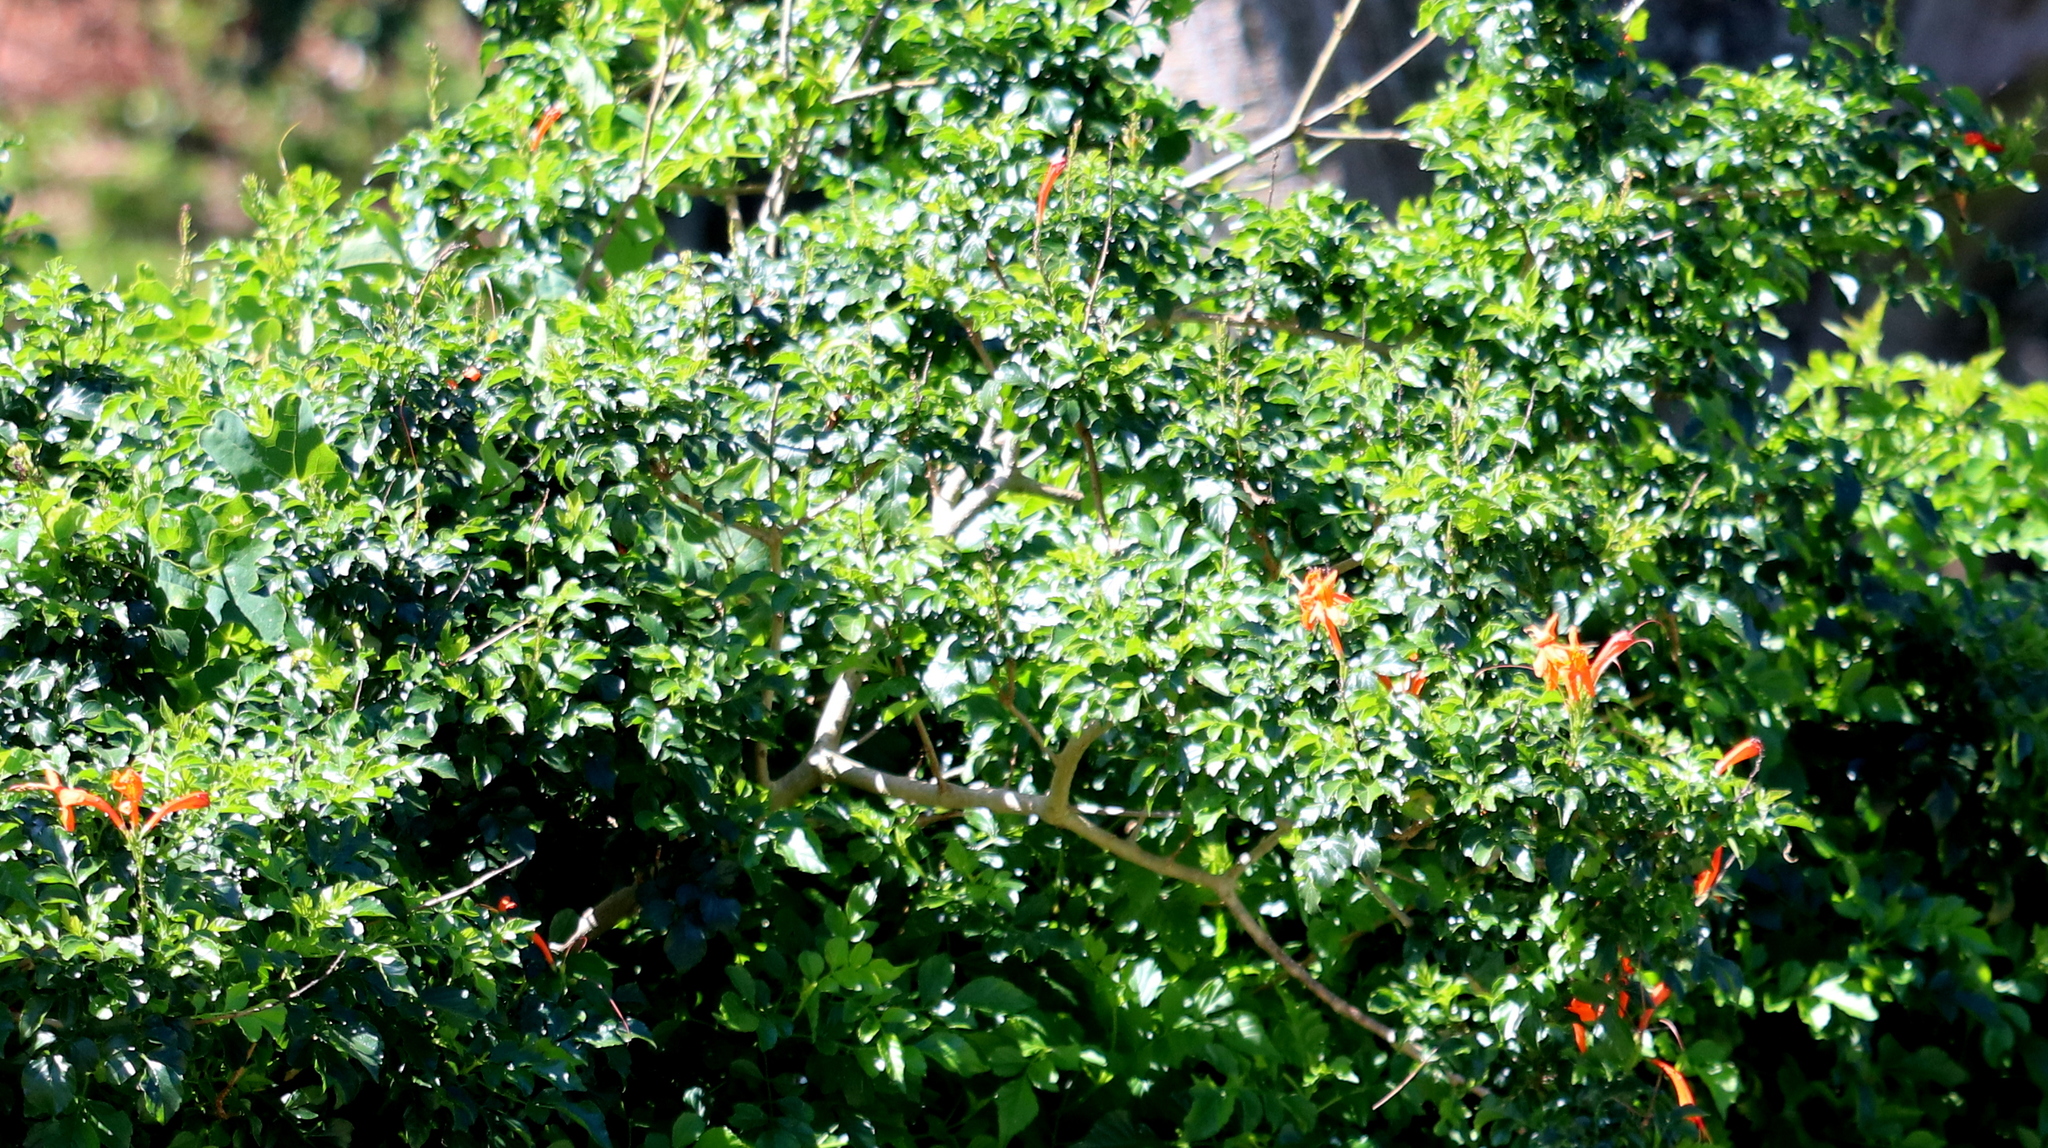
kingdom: Plantae
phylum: Tracheophyta
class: Magnoliopsida
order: Lamiales
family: Bignoniaceae
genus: Tecomaria
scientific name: Tecomaria capensis
